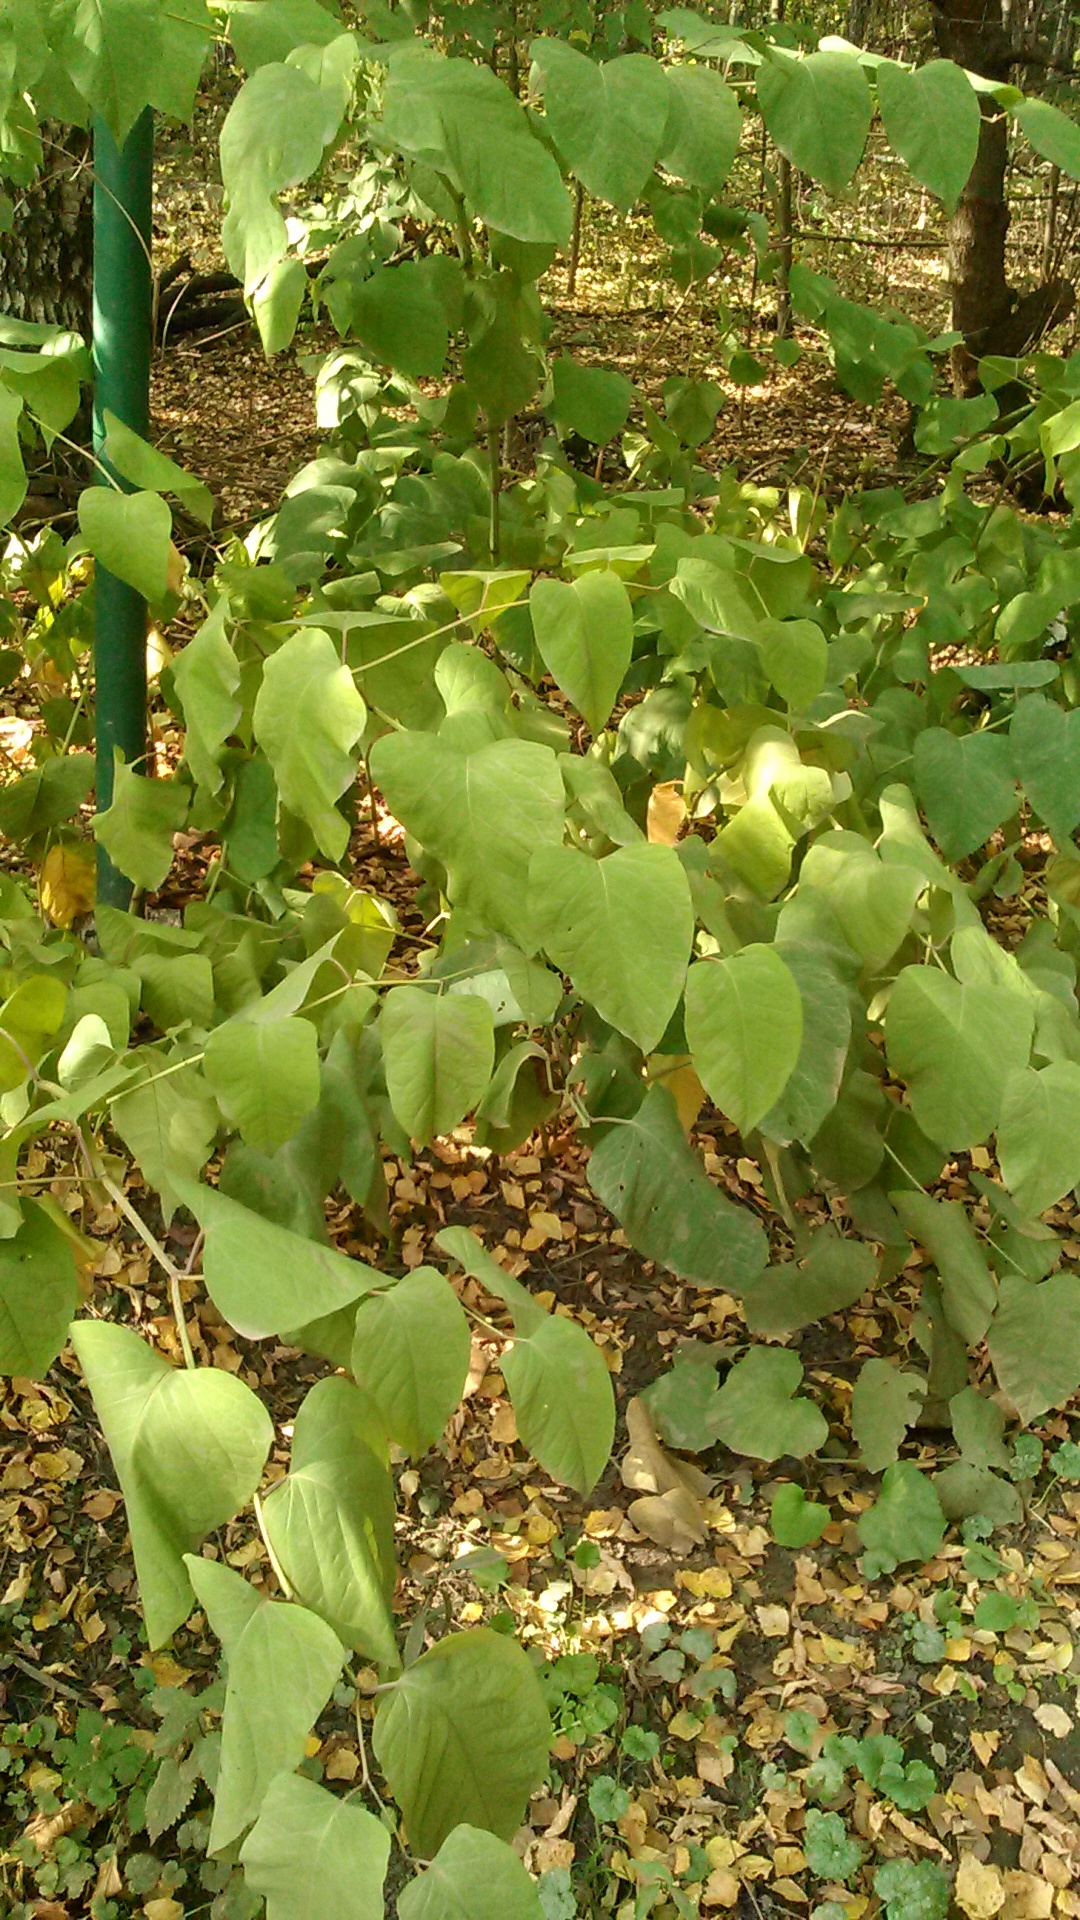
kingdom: Plantae
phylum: Tracheophyta
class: Magnoliopsida
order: Caryophyllales
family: Polygonaceae
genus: Reynoutria
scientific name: Reynoutria bohemica
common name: Bohemian knotweed
